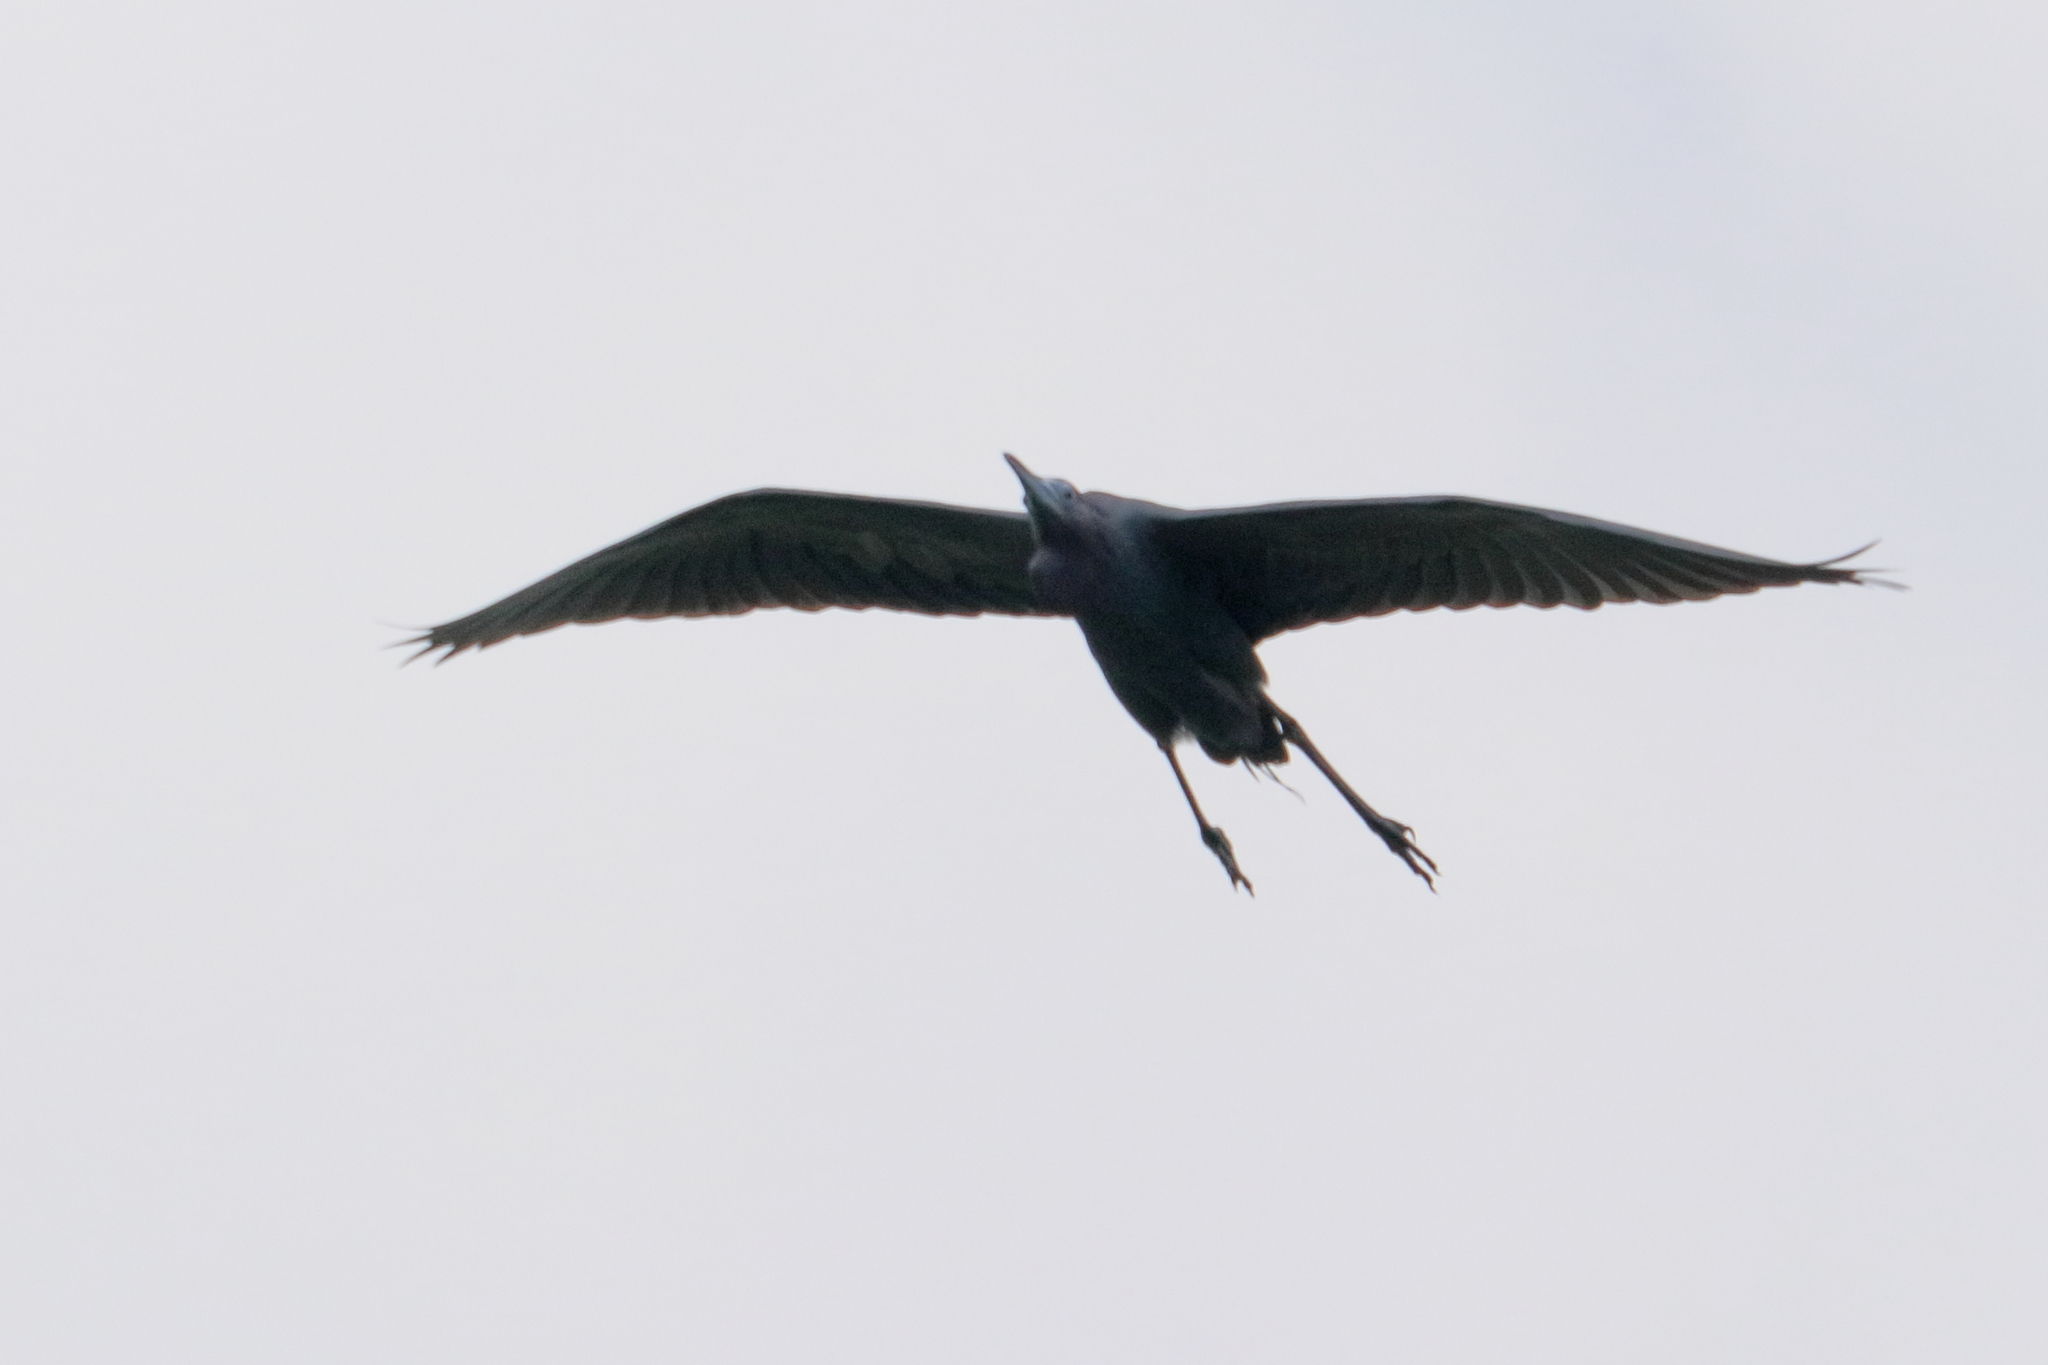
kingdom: Animalia
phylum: Chordata
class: Aves
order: Pelecaniformes
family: Ardeidae
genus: Egretta
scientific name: Egretta caerulea
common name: Little blue heron
